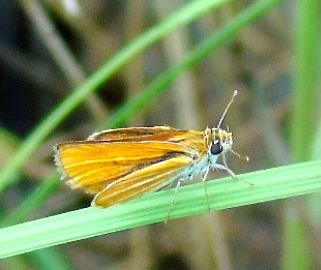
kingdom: Animalia
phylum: Arthropoda
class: Insecta
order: Lepidoptera
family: Hesperiidae
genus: Copaeodes
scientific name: Copaeodes minima
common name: Southern skipperling
